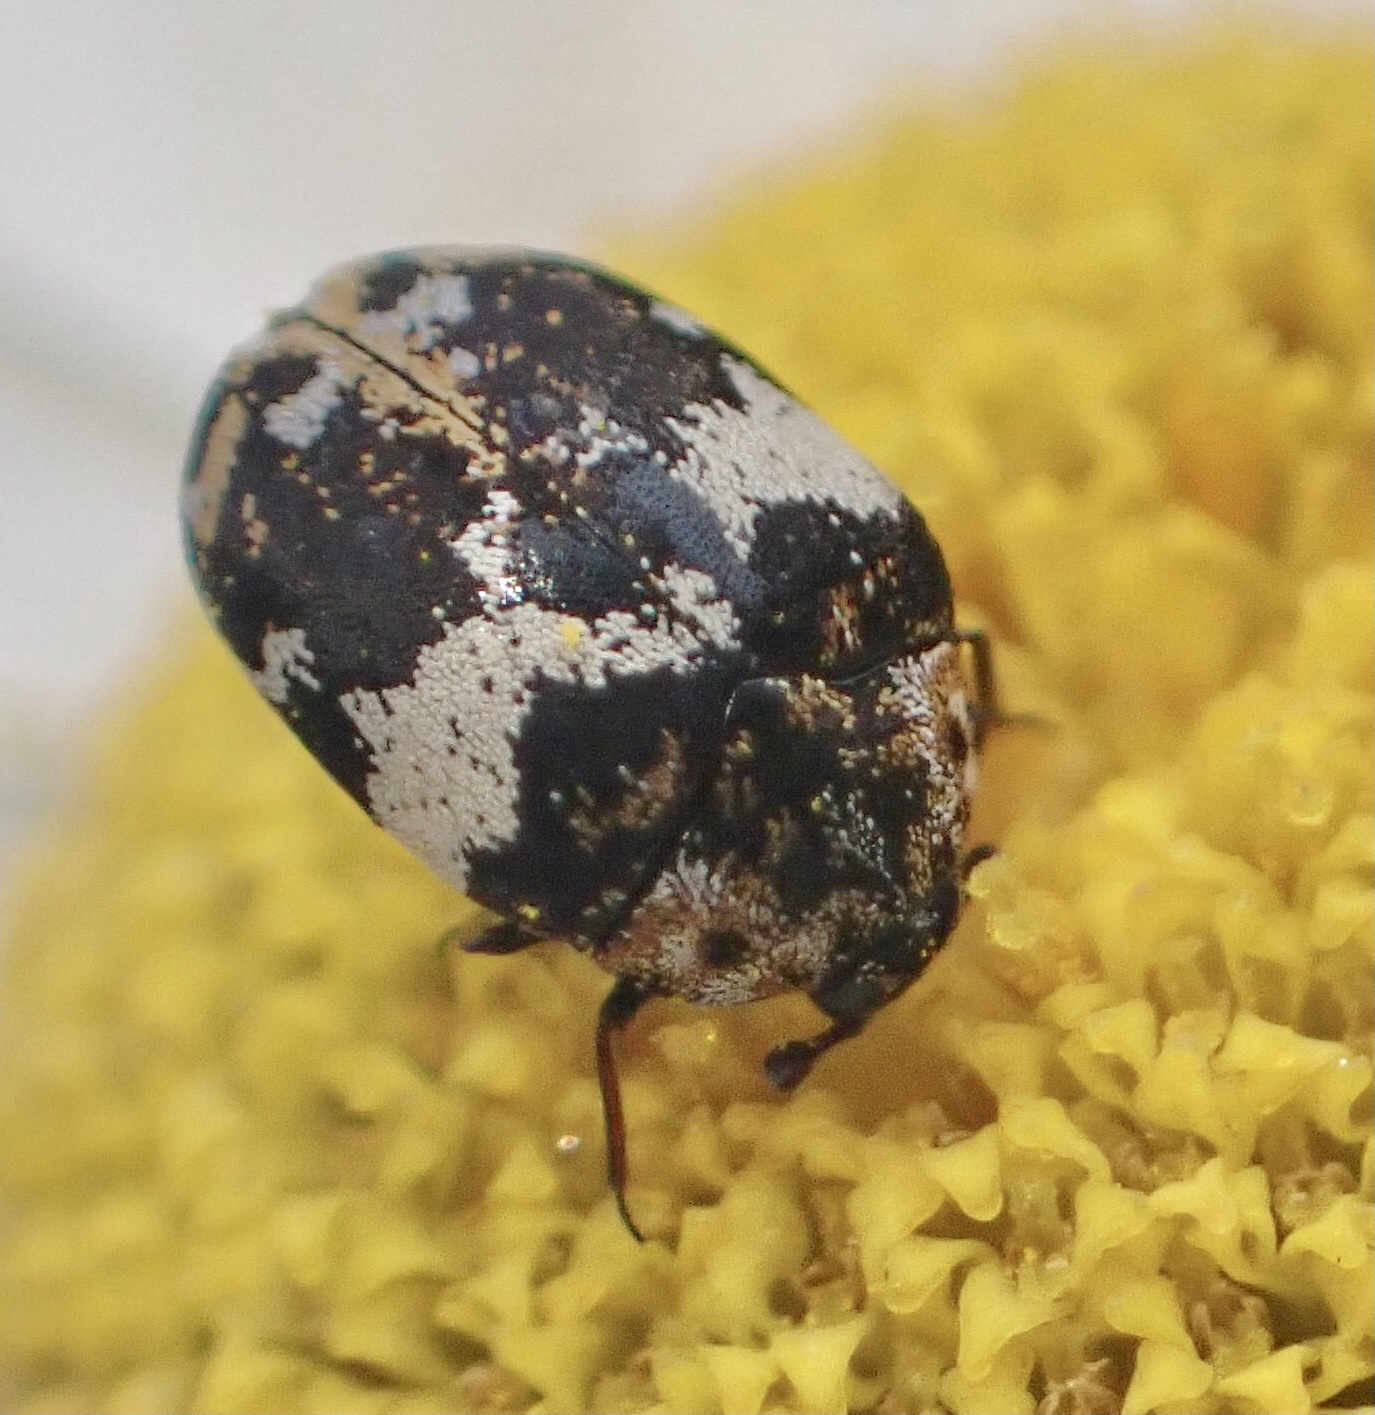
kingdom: Animalia
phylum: Arthropoda
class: Insecta
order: Coleoptera
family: Dermestidae
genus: Anthrenus
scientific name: Anthrenus pimpinellae
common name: Dermestid beetle
